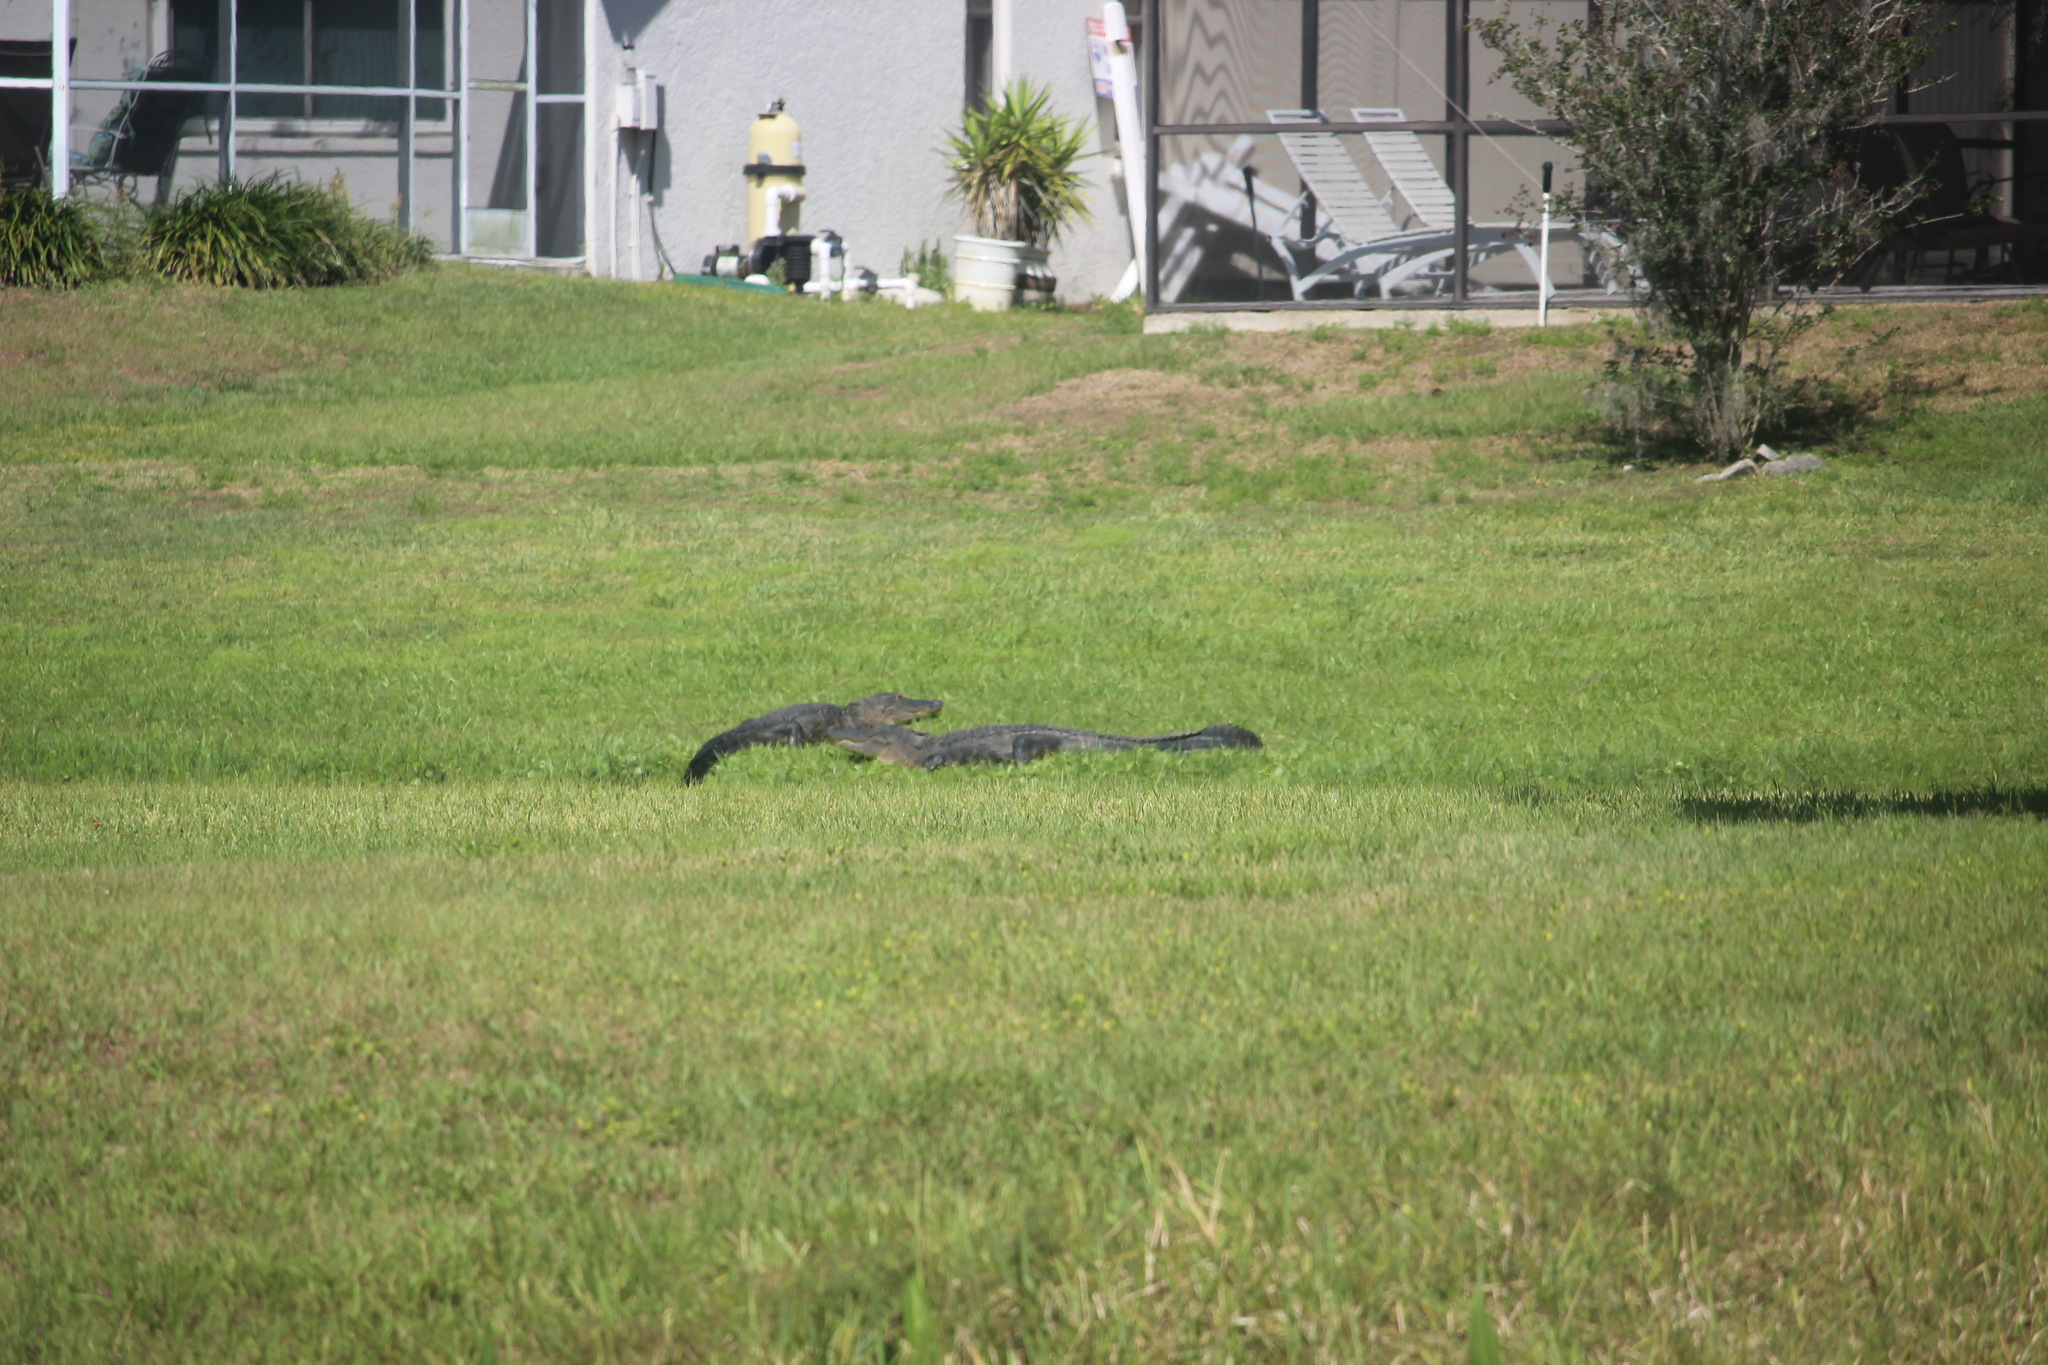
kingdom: Animalia
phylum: Chordata
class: Crocodylia
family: Alligatoridae
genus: Alligator
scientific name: Alligator mississippiensis
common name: American alligator
